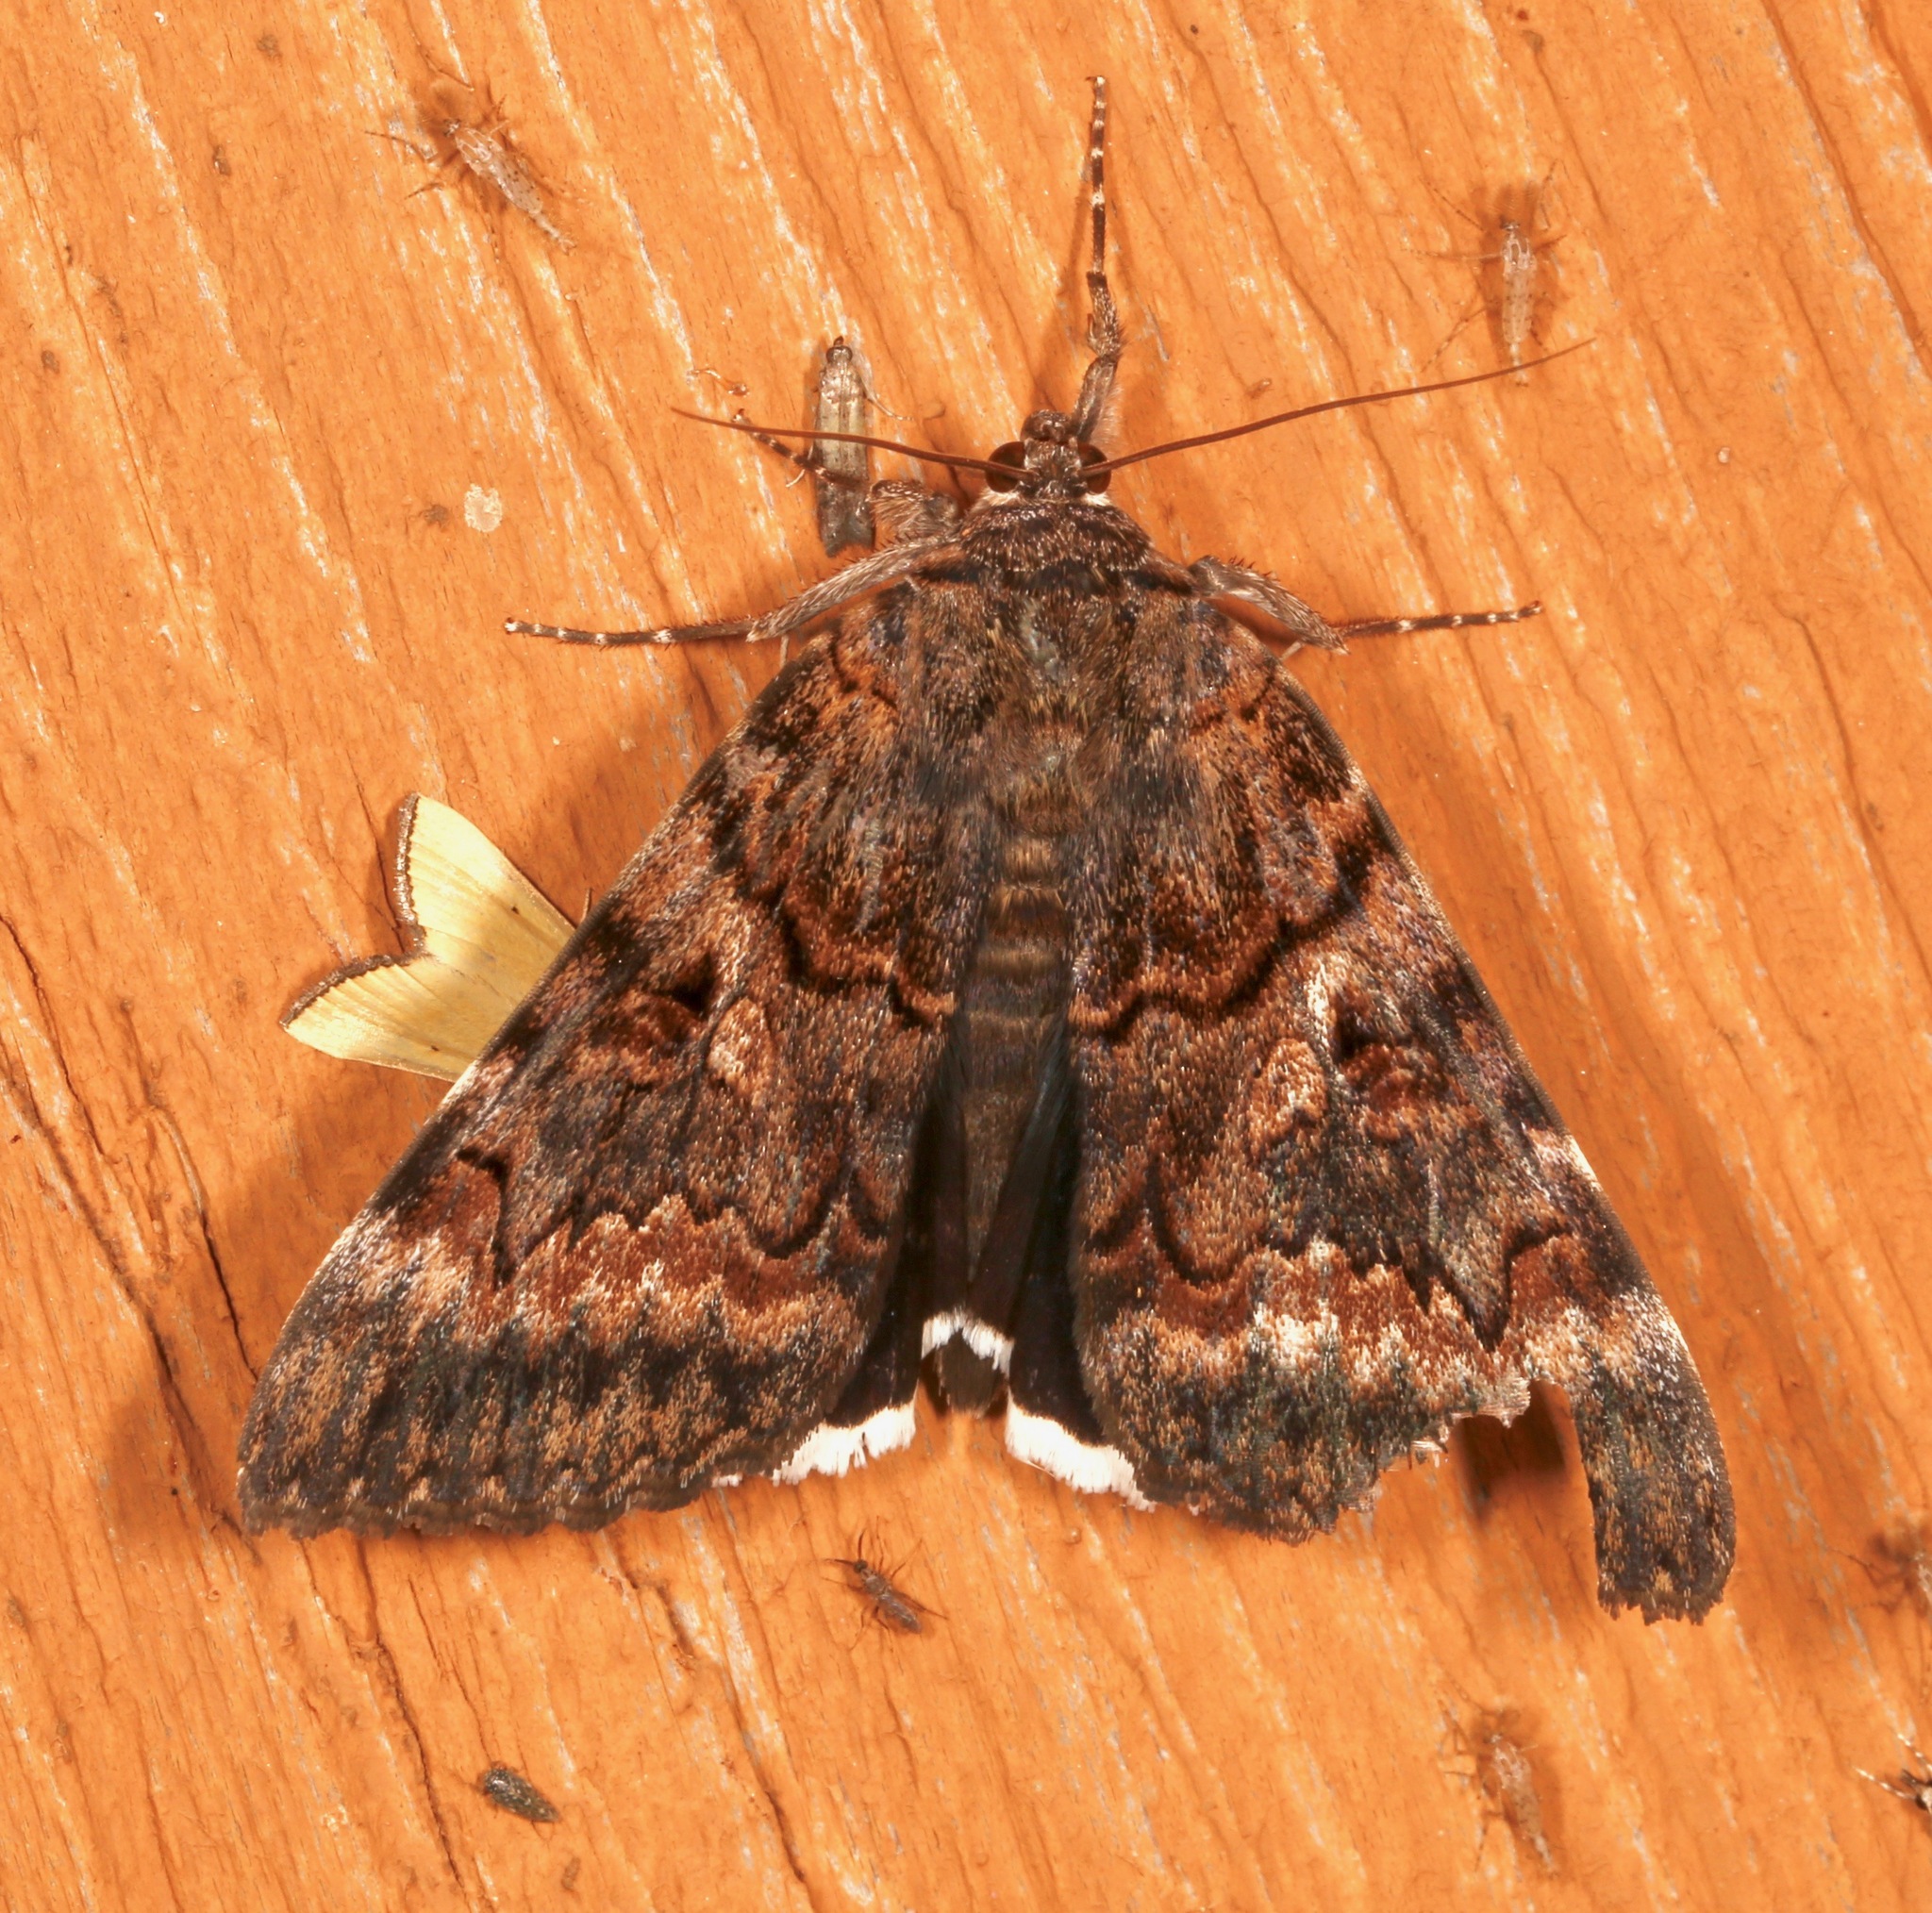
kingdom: Animalia
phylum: Arthropoda
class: Insecta
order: Lepidoptera
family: Erebidae
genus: Catocala
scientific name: Catocala epione
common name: Epione underwing
